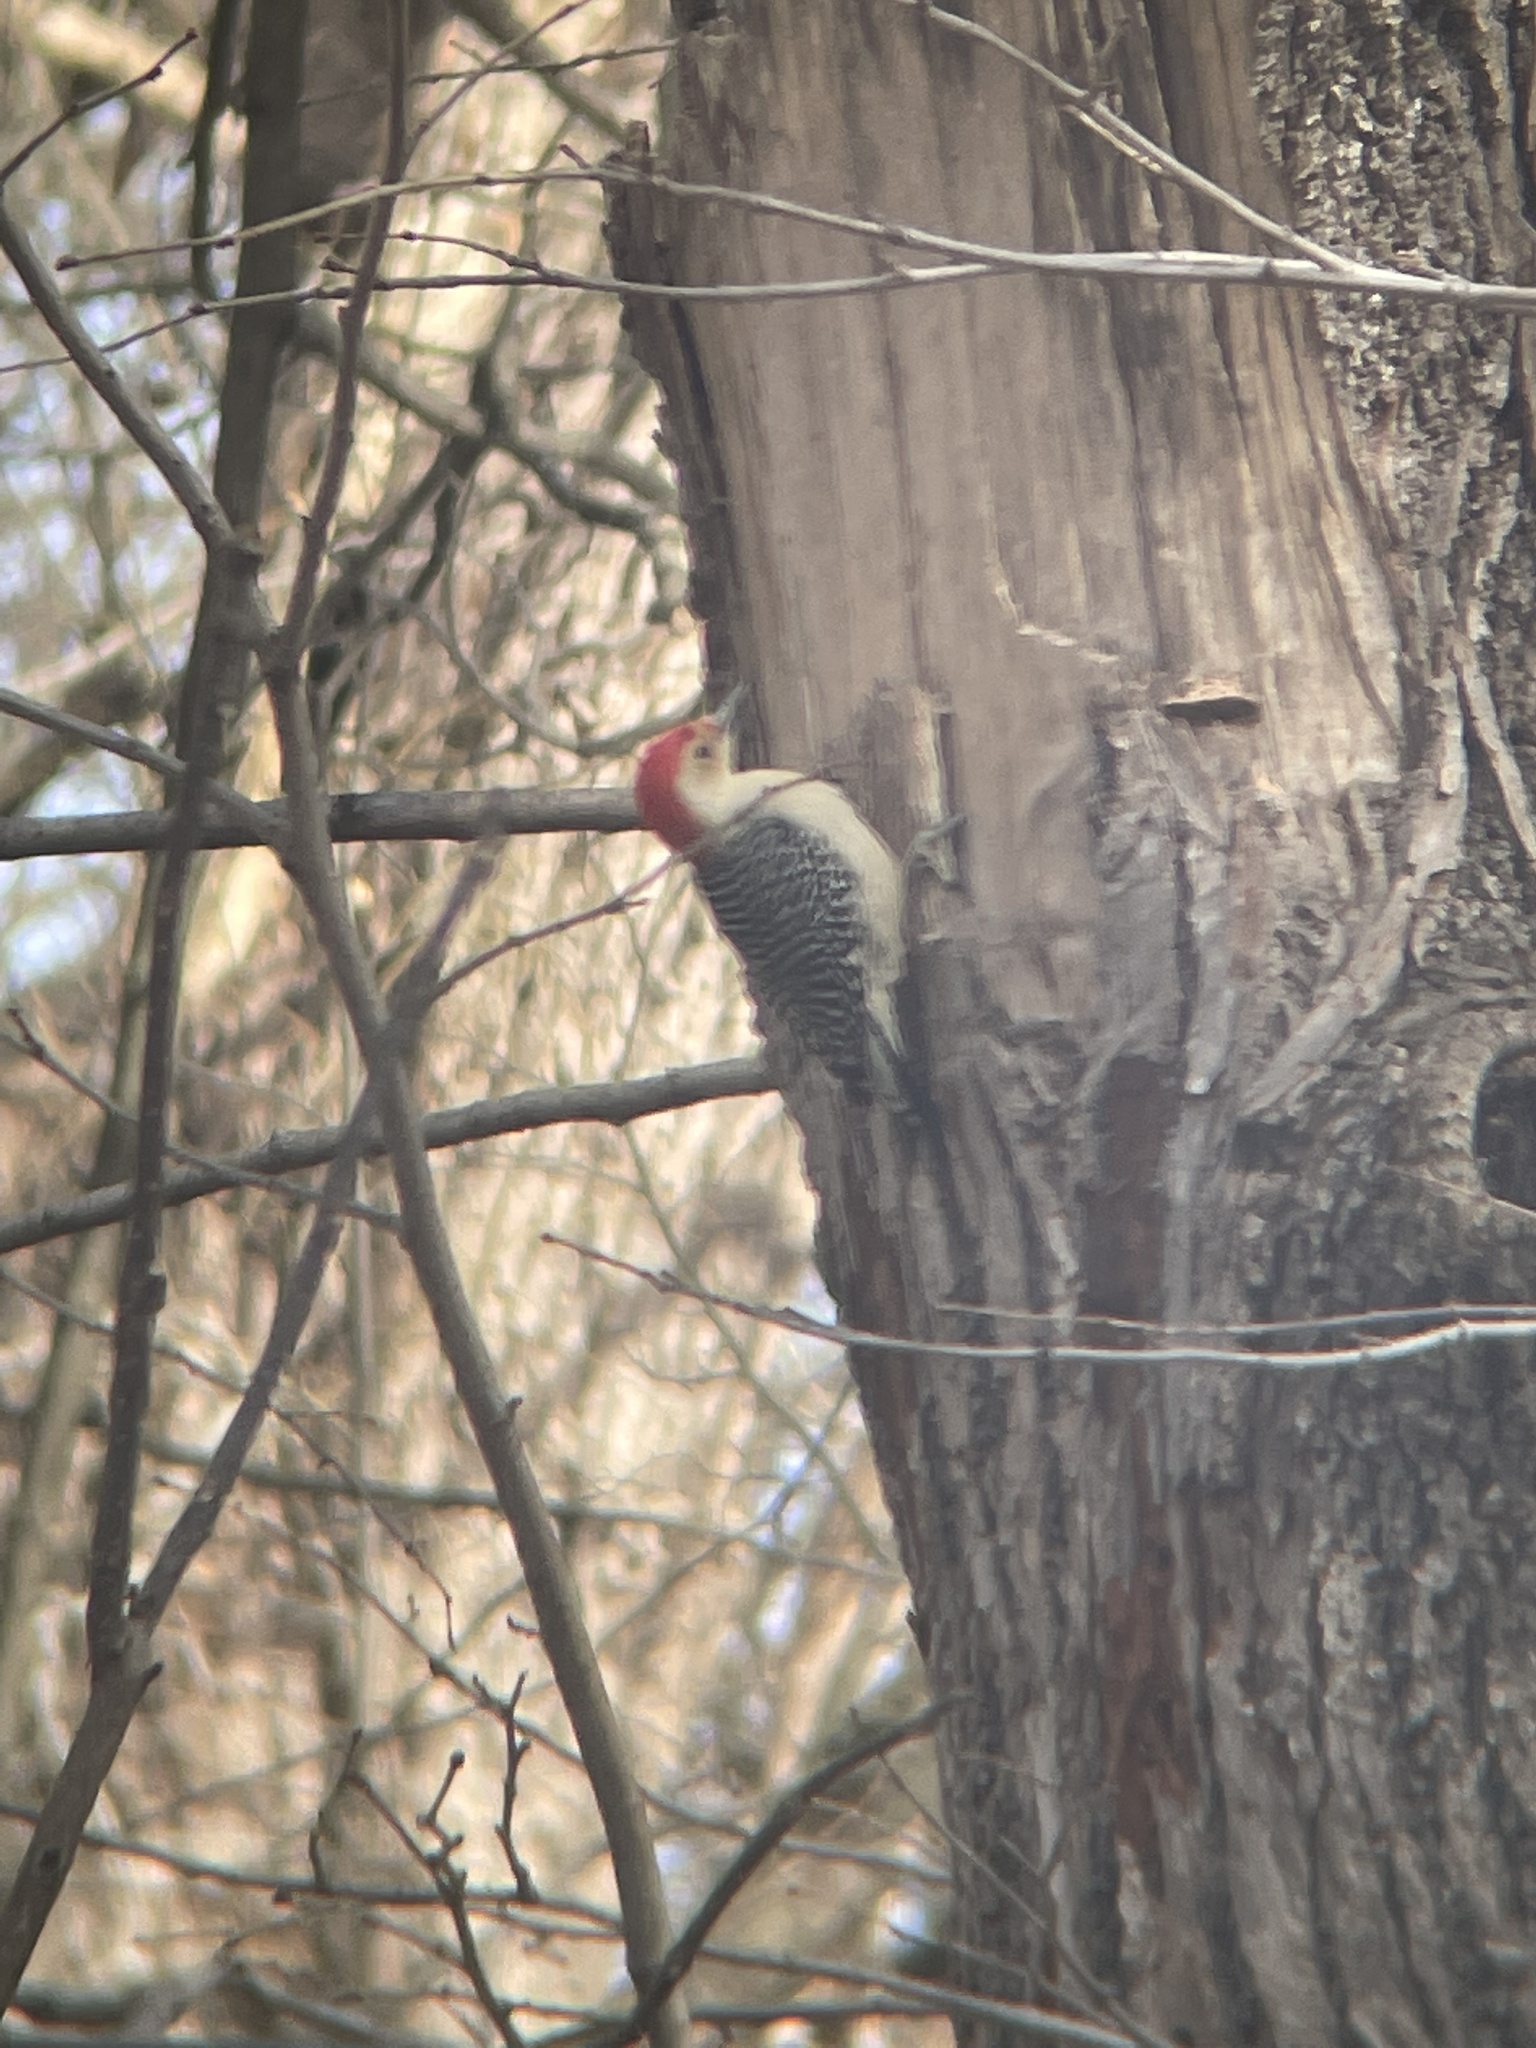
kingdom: Animalia
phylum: Chordata
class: Aves
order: Piciformes
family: Picidae
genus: Melanerpes
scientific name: Melanerpes carolinus
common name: Red-bellied woodpecker
